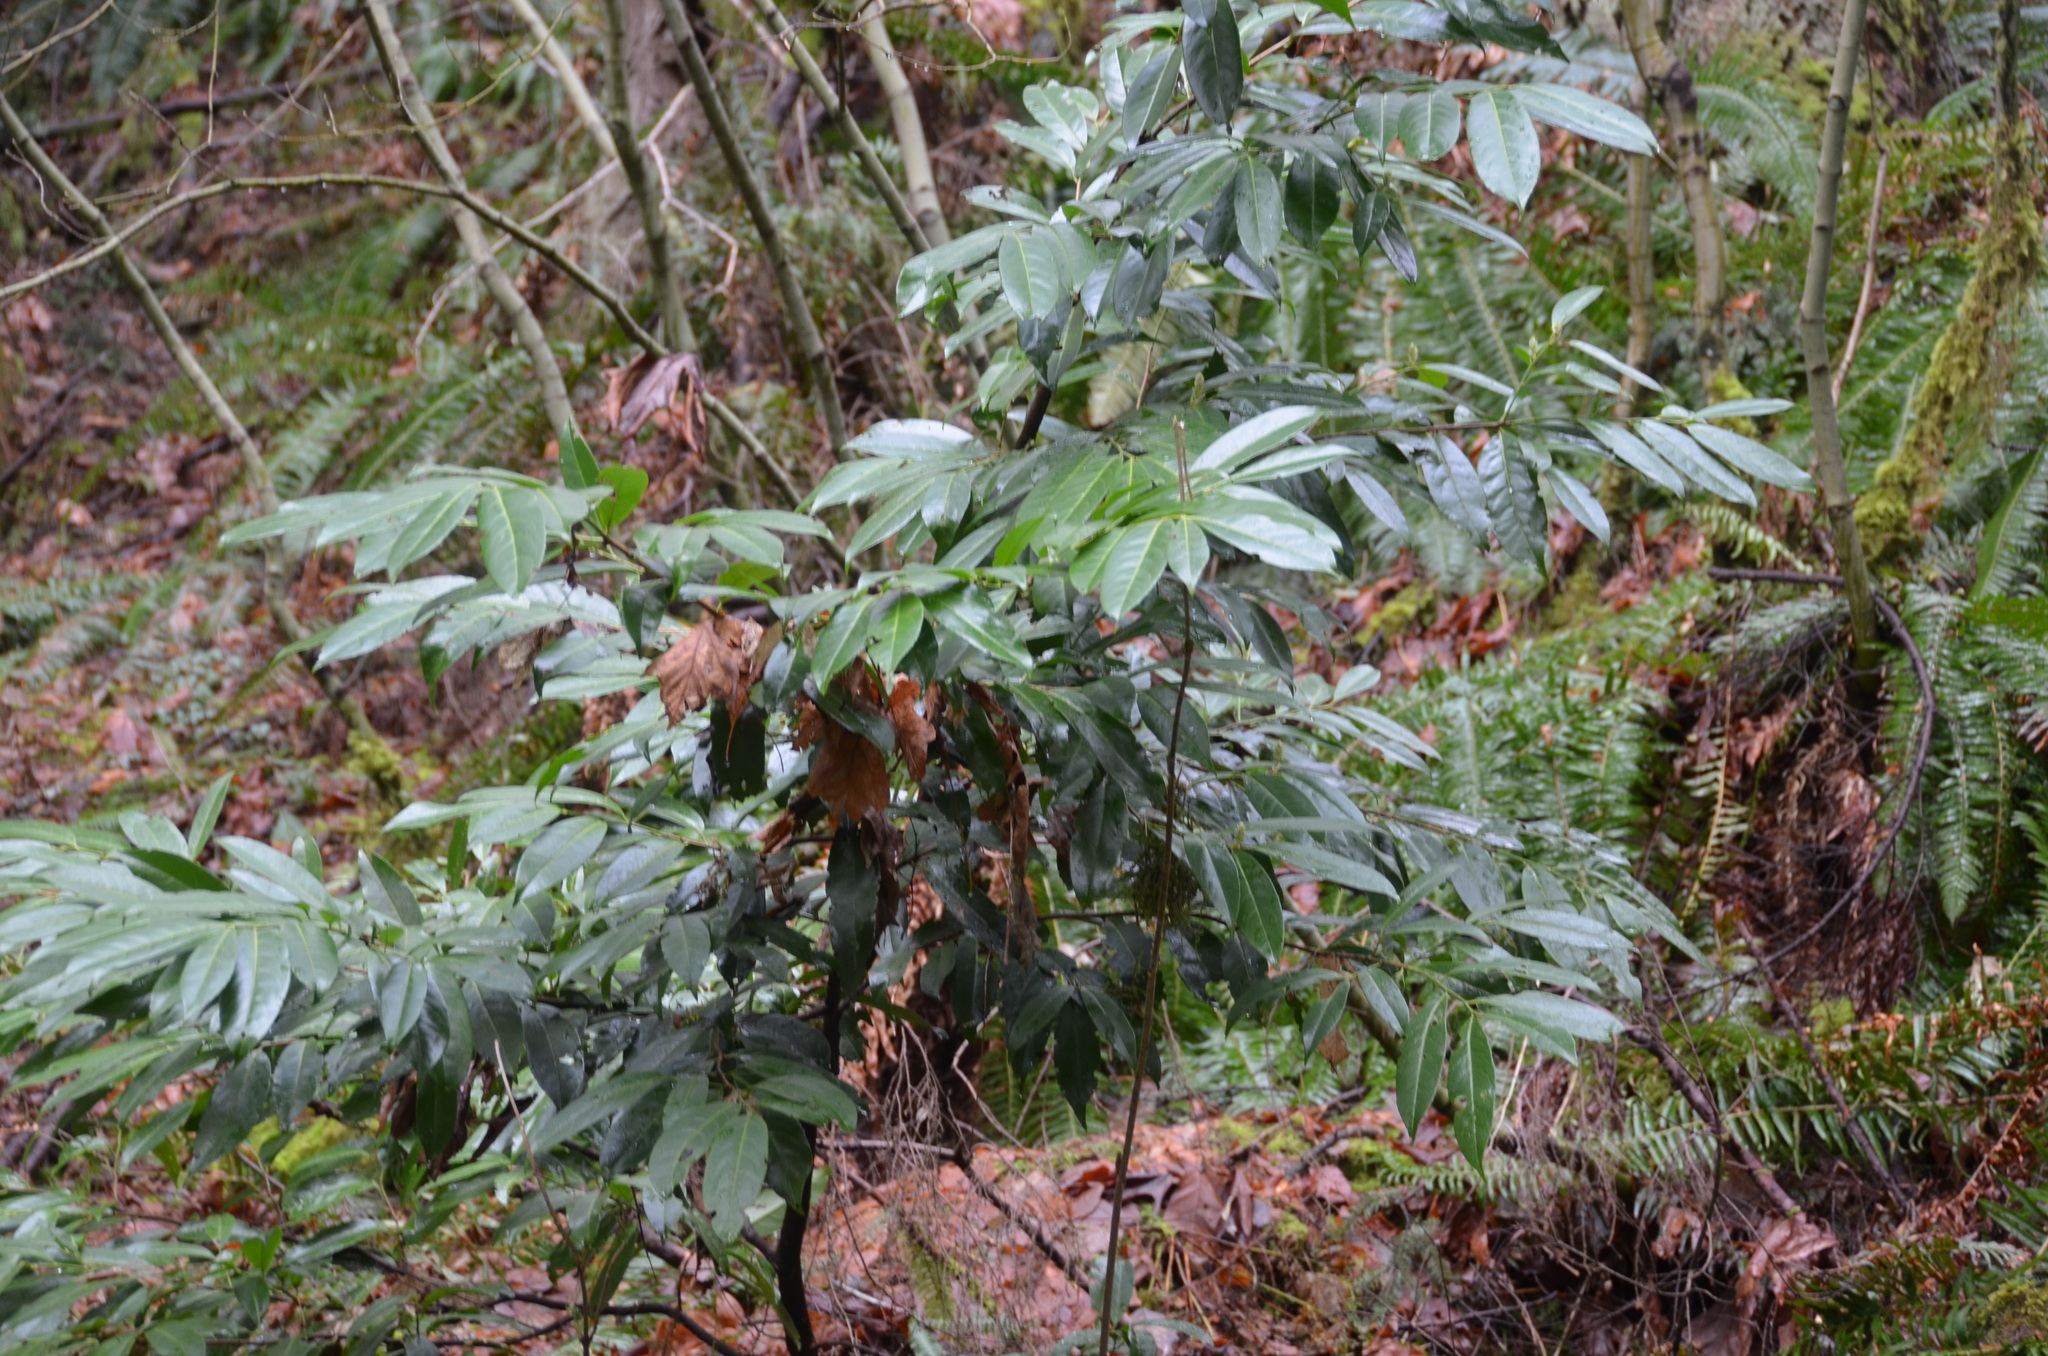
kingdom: Plantae
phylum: Tracheophyta
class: Magnoliopsida
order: Rosales
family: Rosaceae
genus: Prunus
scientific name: Prunus laurocerasus
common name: Cherry laurel
